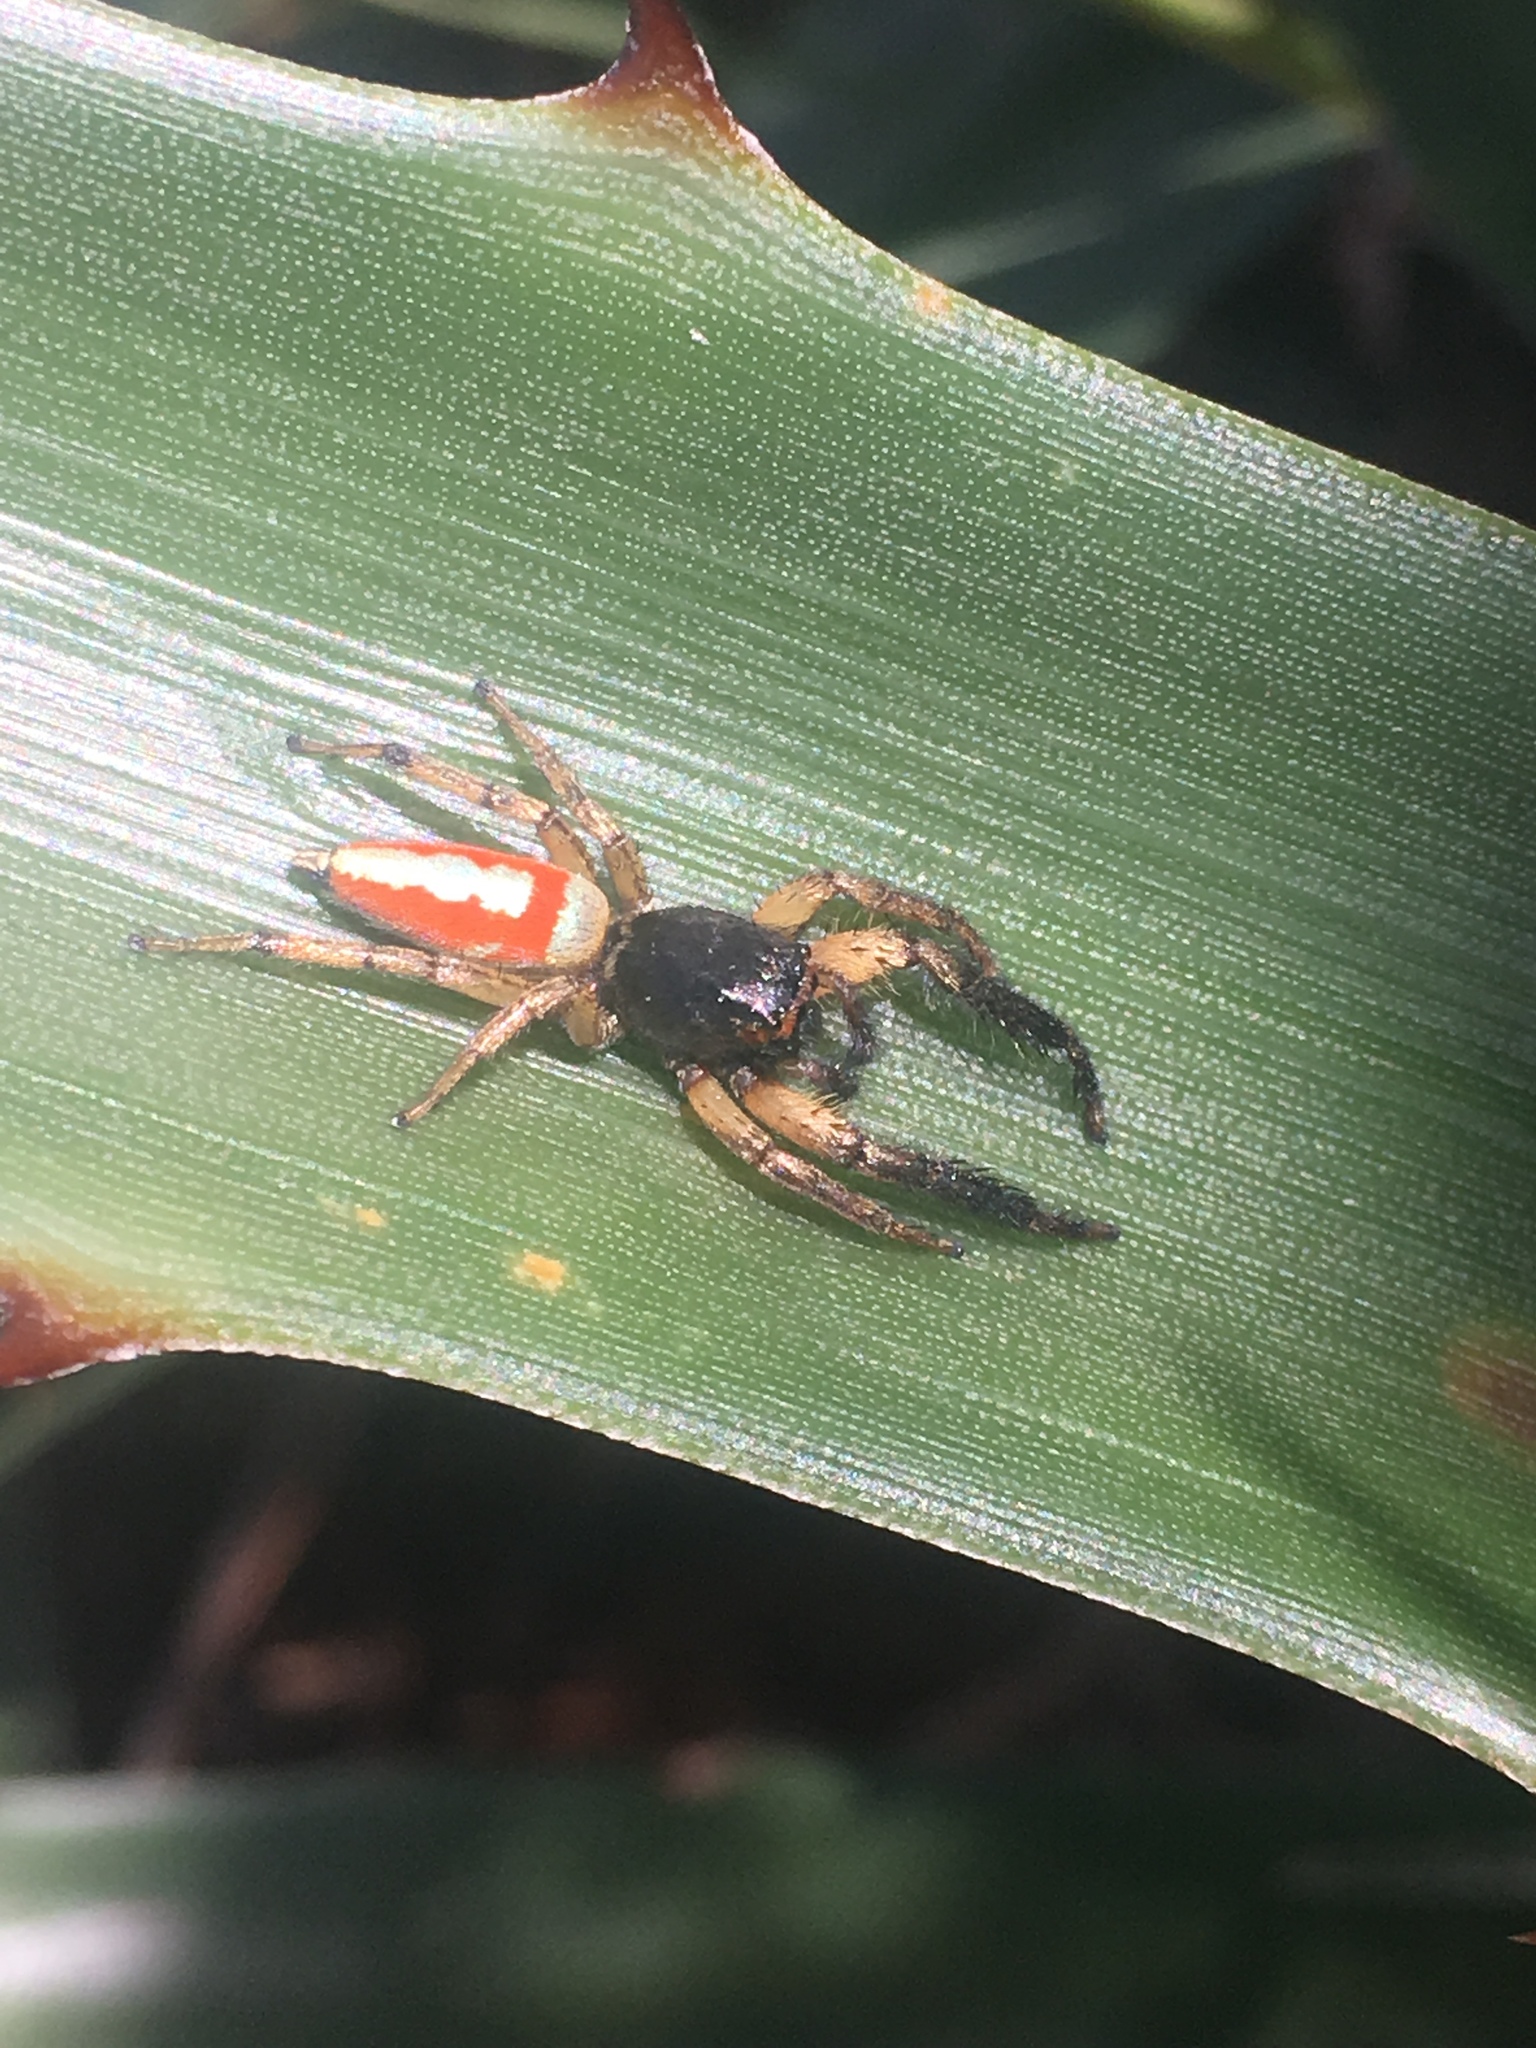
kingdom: Animalia
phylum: Arthropoda
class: Arachnida
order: Araneae
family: Salticidae
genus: Psecas
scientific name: Psecas chapoda
